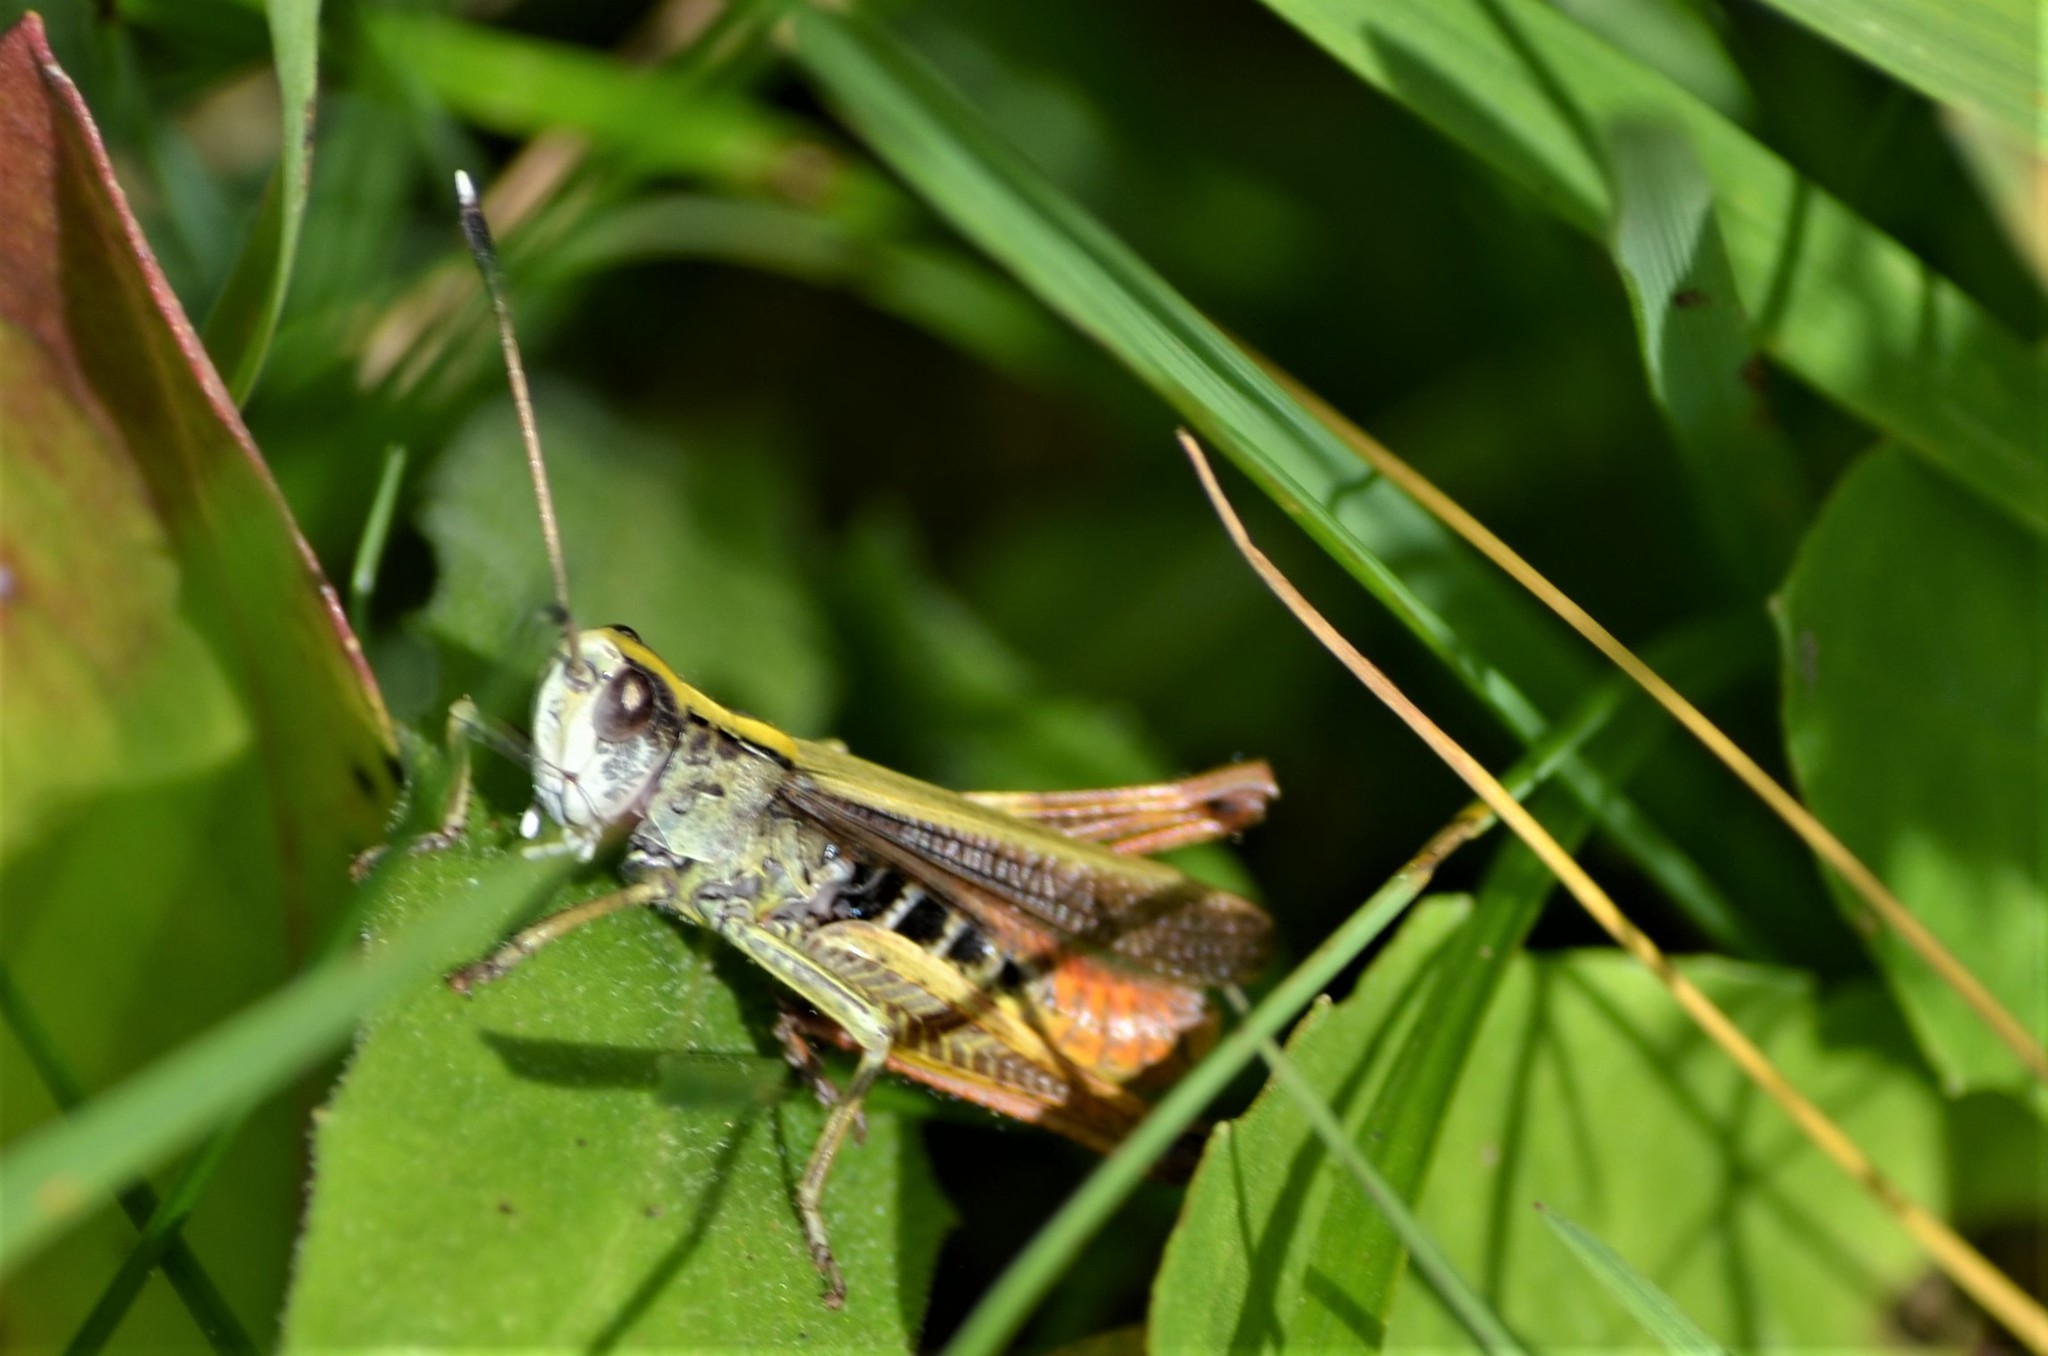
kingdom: Animalia
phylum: Arthropoda
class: Insecta
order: Orthoptera
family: Acrididae
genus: Gomphocerippus
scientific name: Gomphocerippus rufus
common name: Rufous grasshopper
